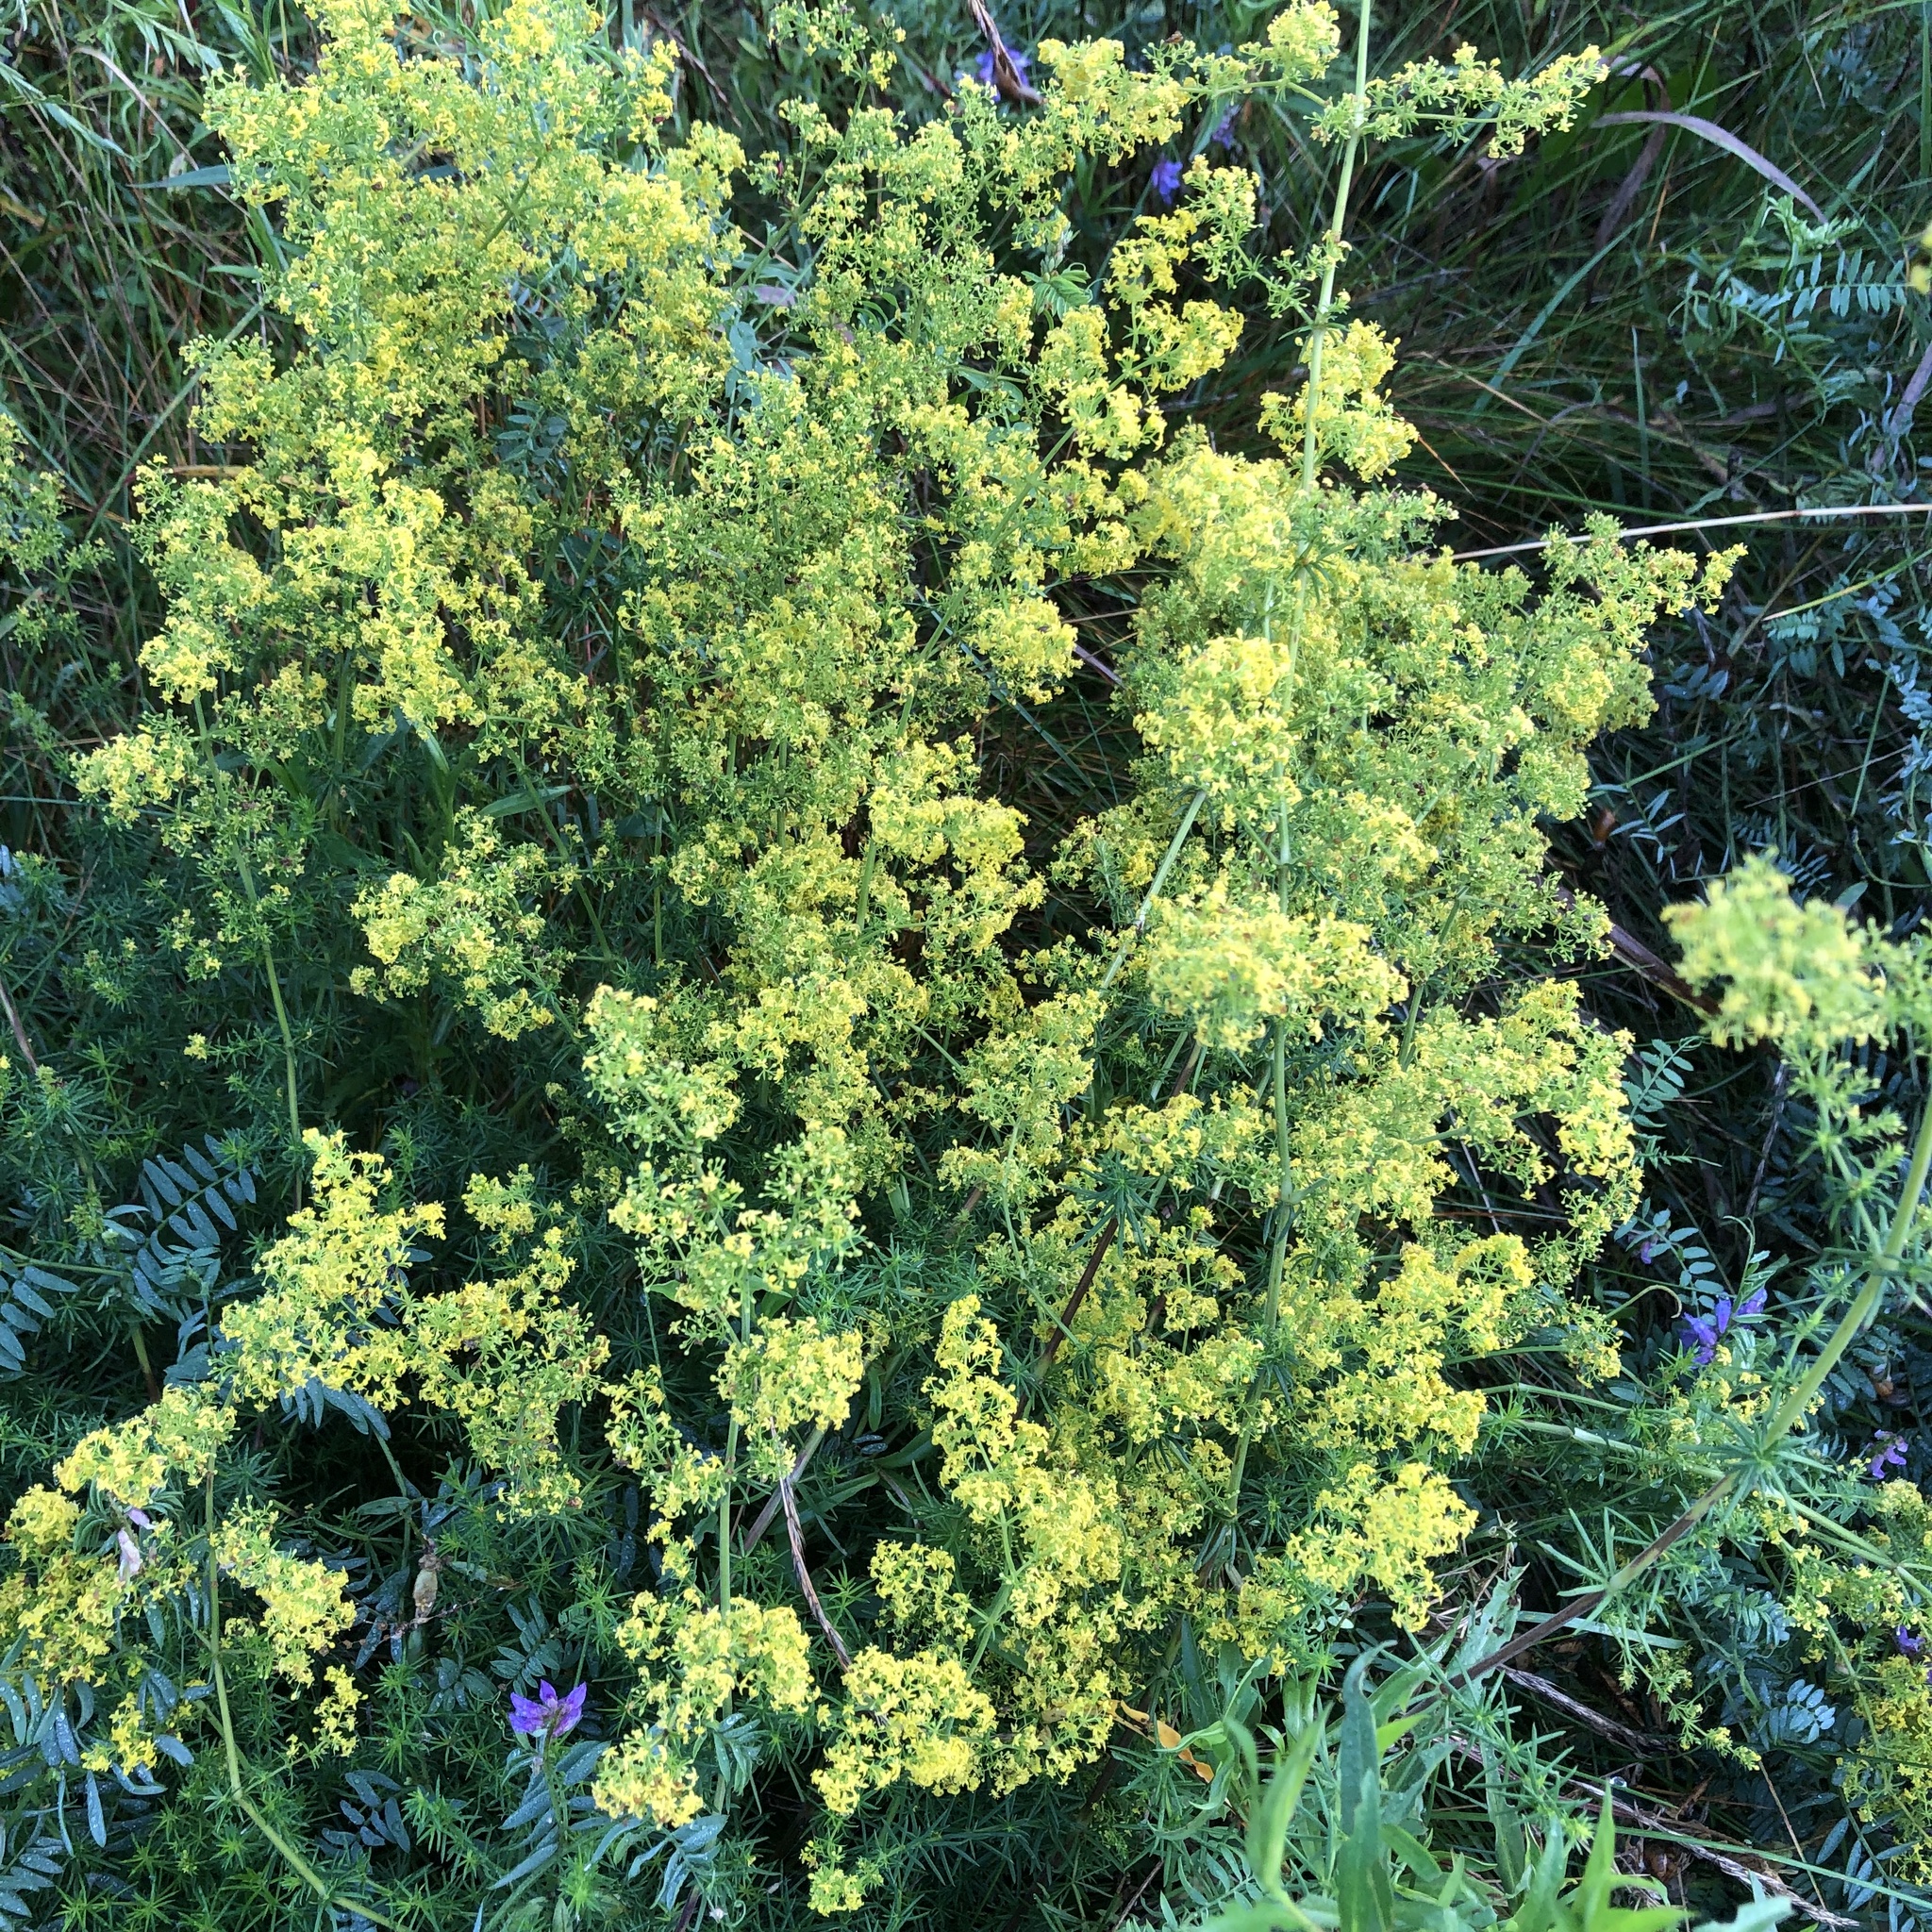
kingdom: Plantae
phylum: Tracheophyta
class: Magnoliopsida
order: Gentianales
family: Rubiaceae
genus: Galium
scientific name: Galium verum
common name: Lady's bedstraw
